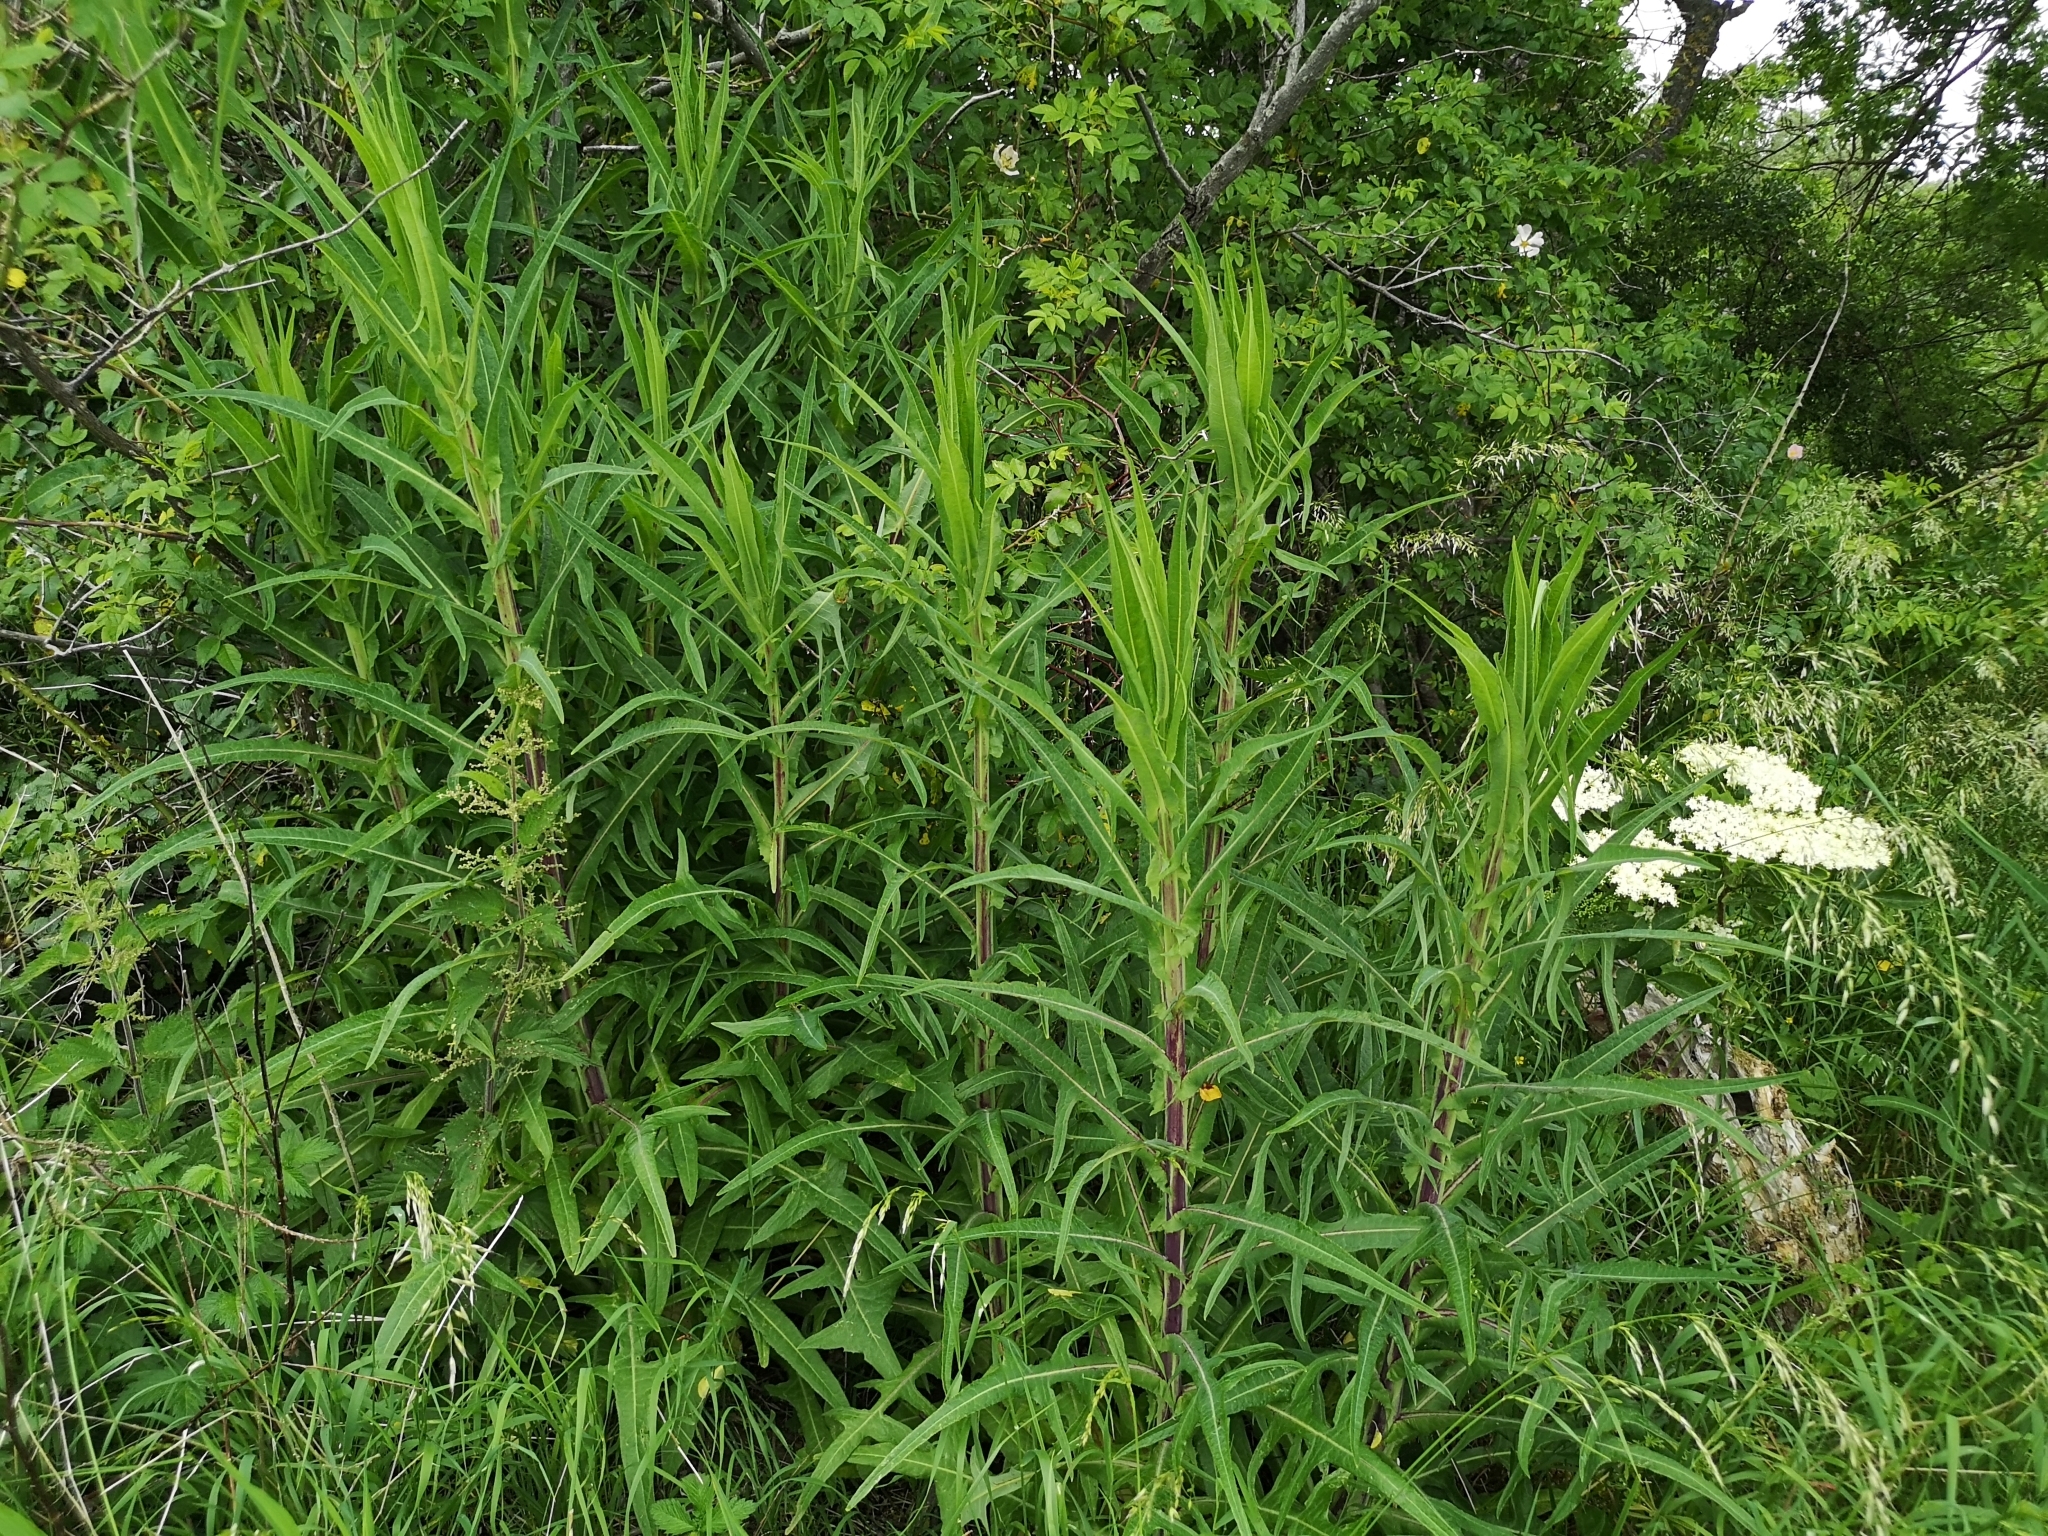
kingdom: Plantae
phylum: Tracheophyta
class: Magnoliopsida
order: Asterales
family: Asteraceae
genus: Sonchus
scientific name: Sonchus palustris
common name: Marsh sow-thistle
